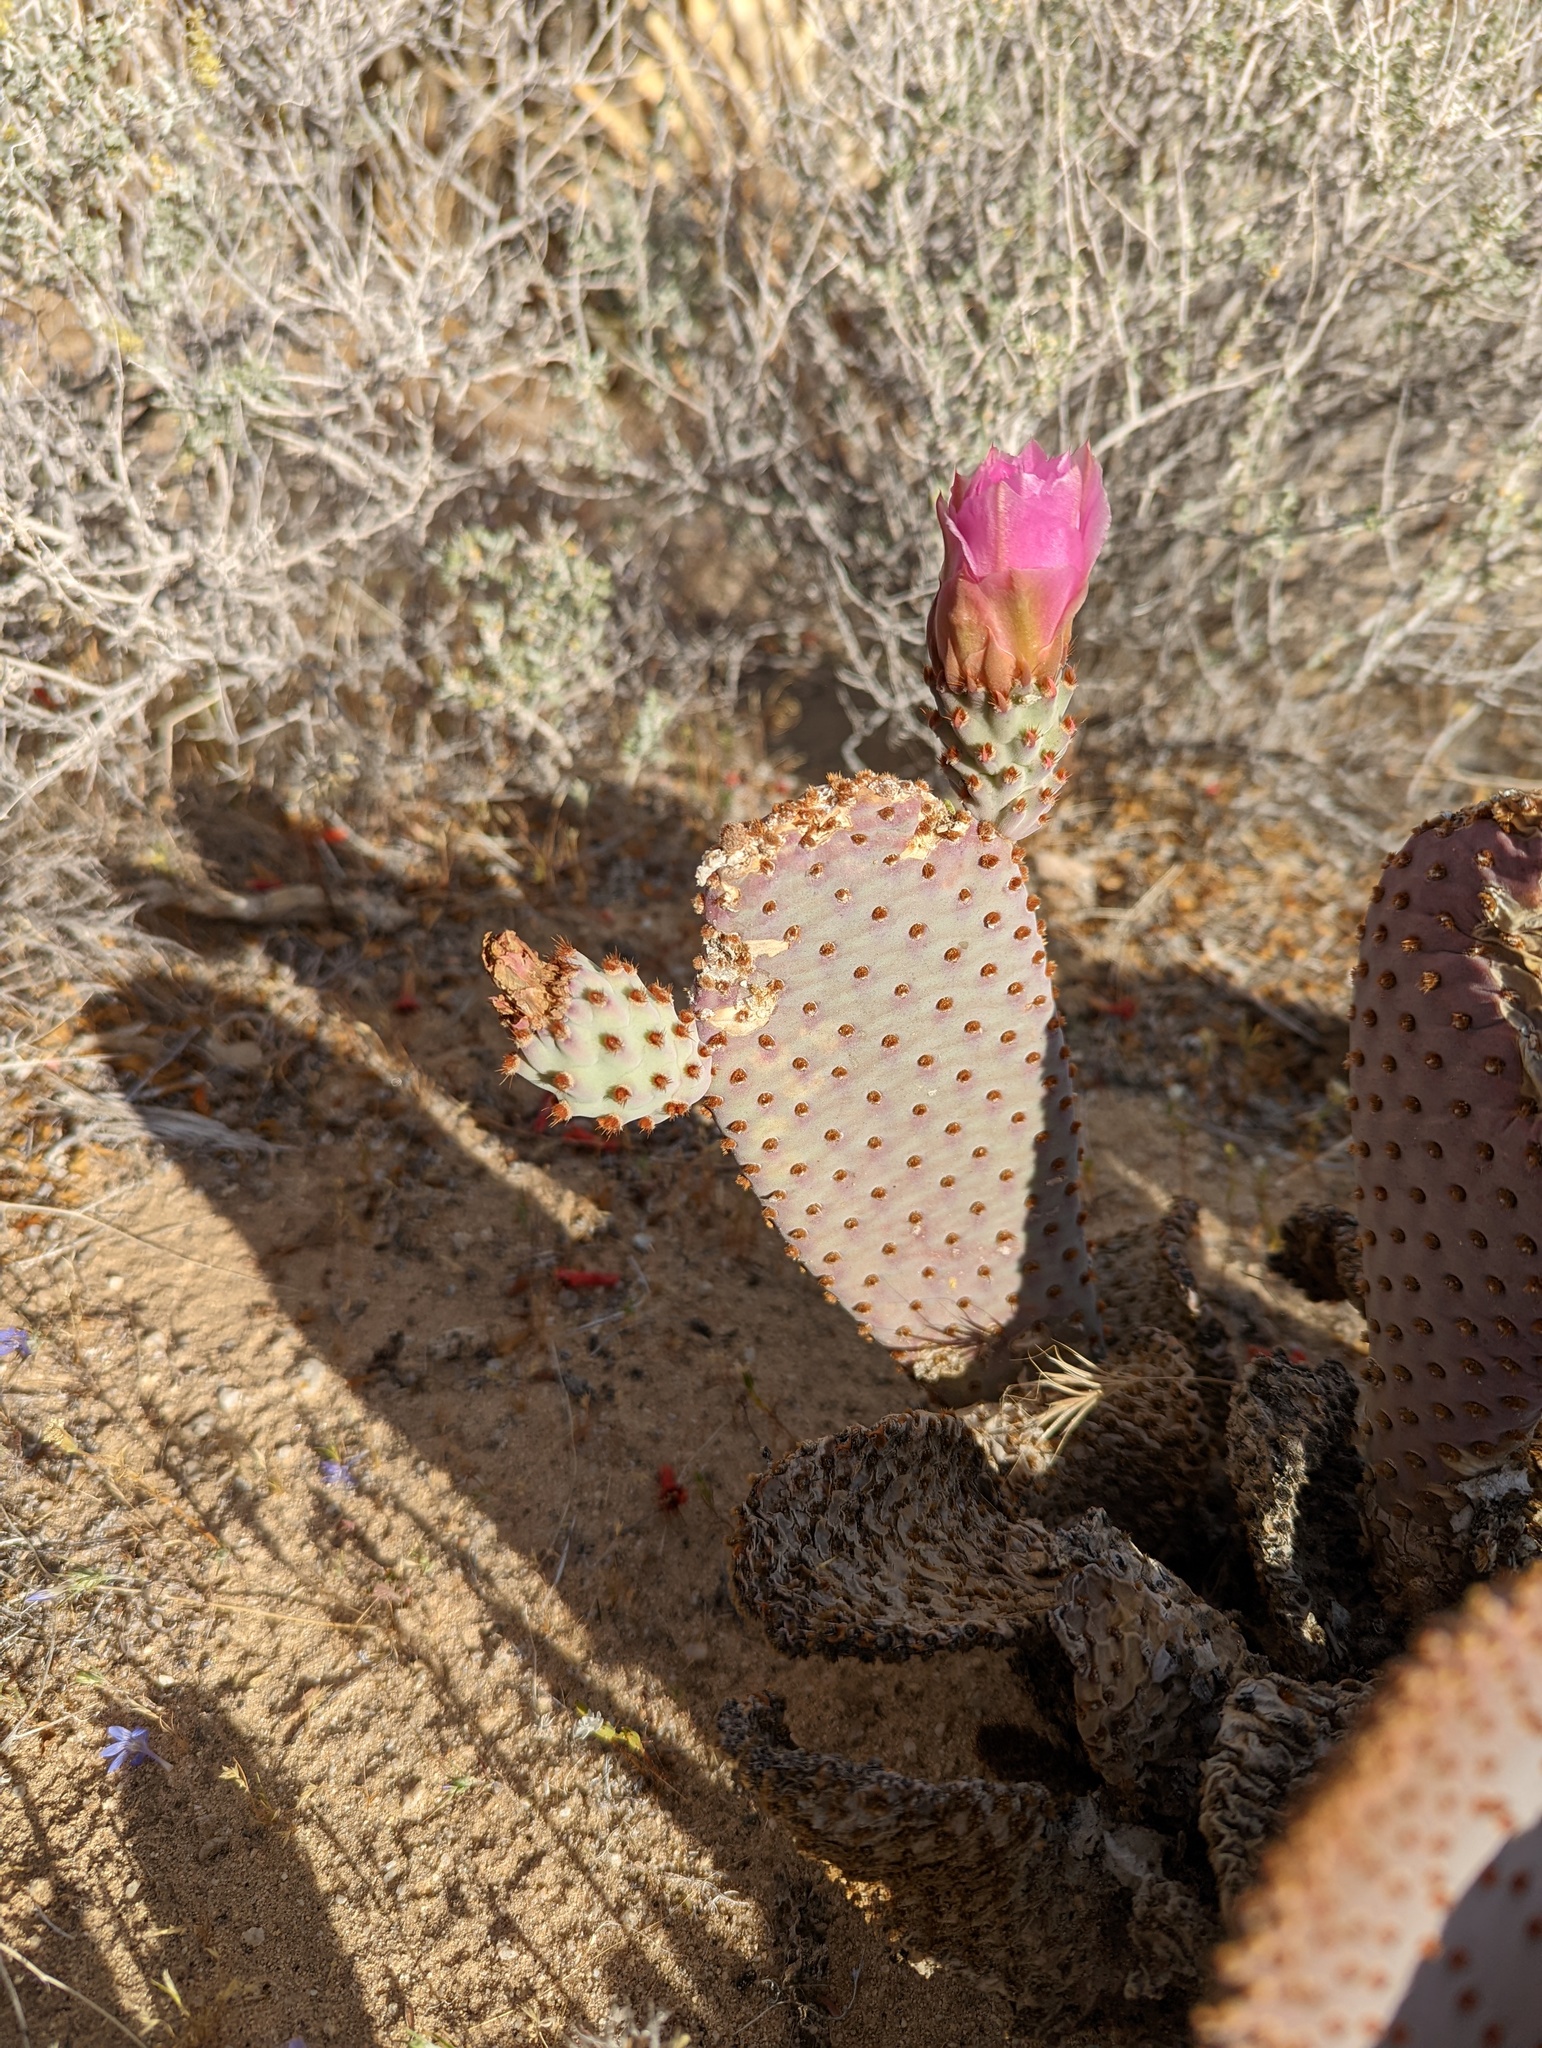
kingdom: Plantae
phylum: Tracheophyta
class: Magnoliopsida
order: Caryophyllales
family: Cactaceae
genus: Opuntia
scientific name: Opuntia basilaris
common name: Beavertail prickly-pear
